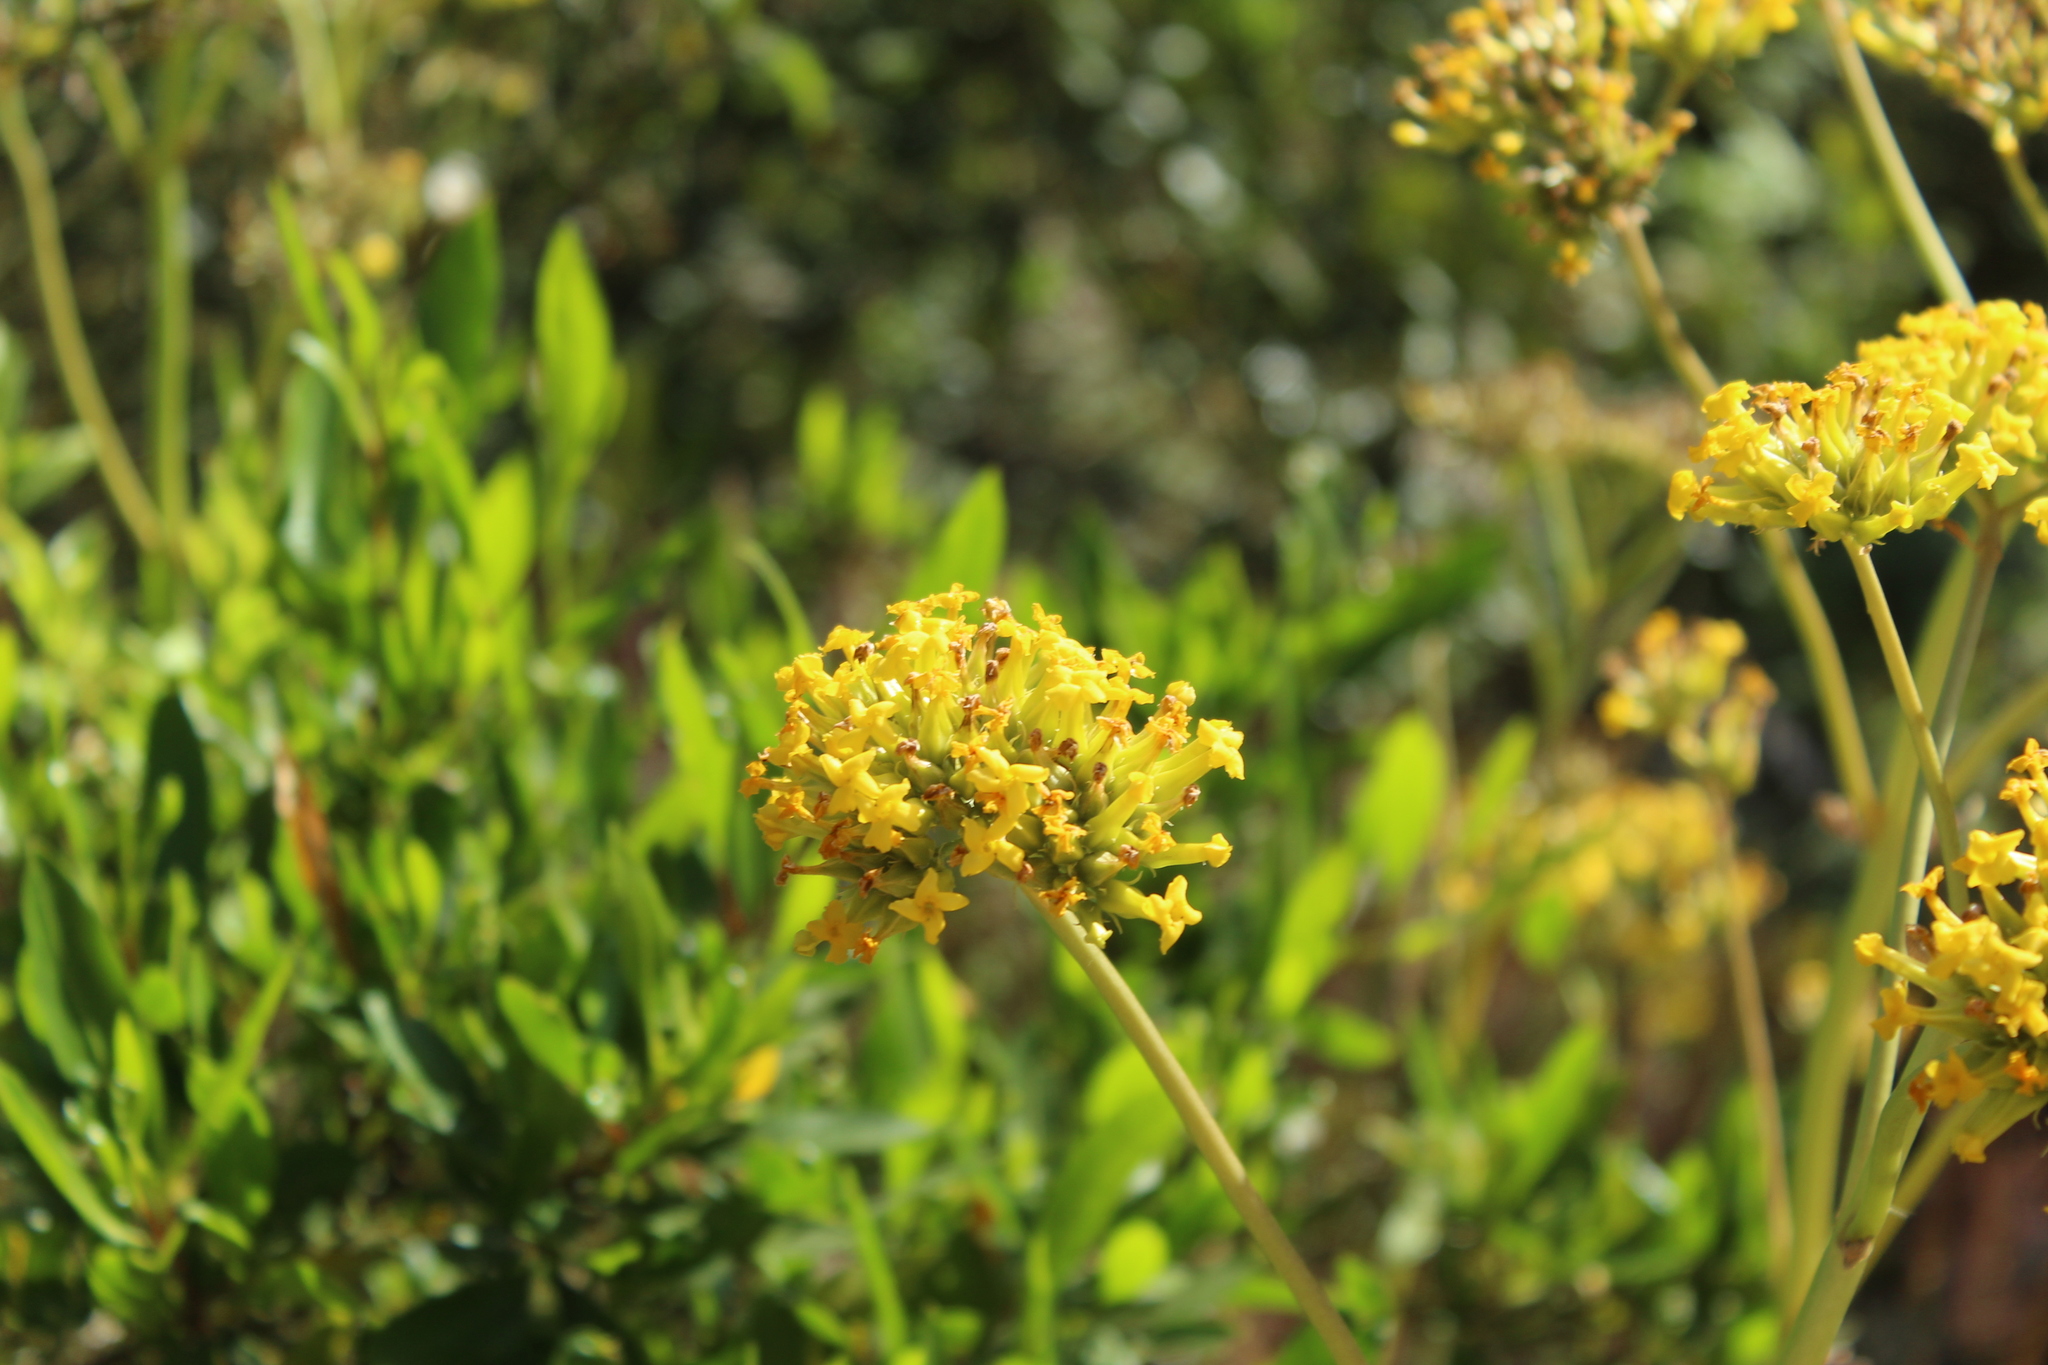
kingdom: Plantae
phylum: Tracheophyta
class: Magnoliopsida
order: Saxifragales
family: Crassulaceae
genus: Kalanchoe
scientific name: Kalanchoe densiflora
